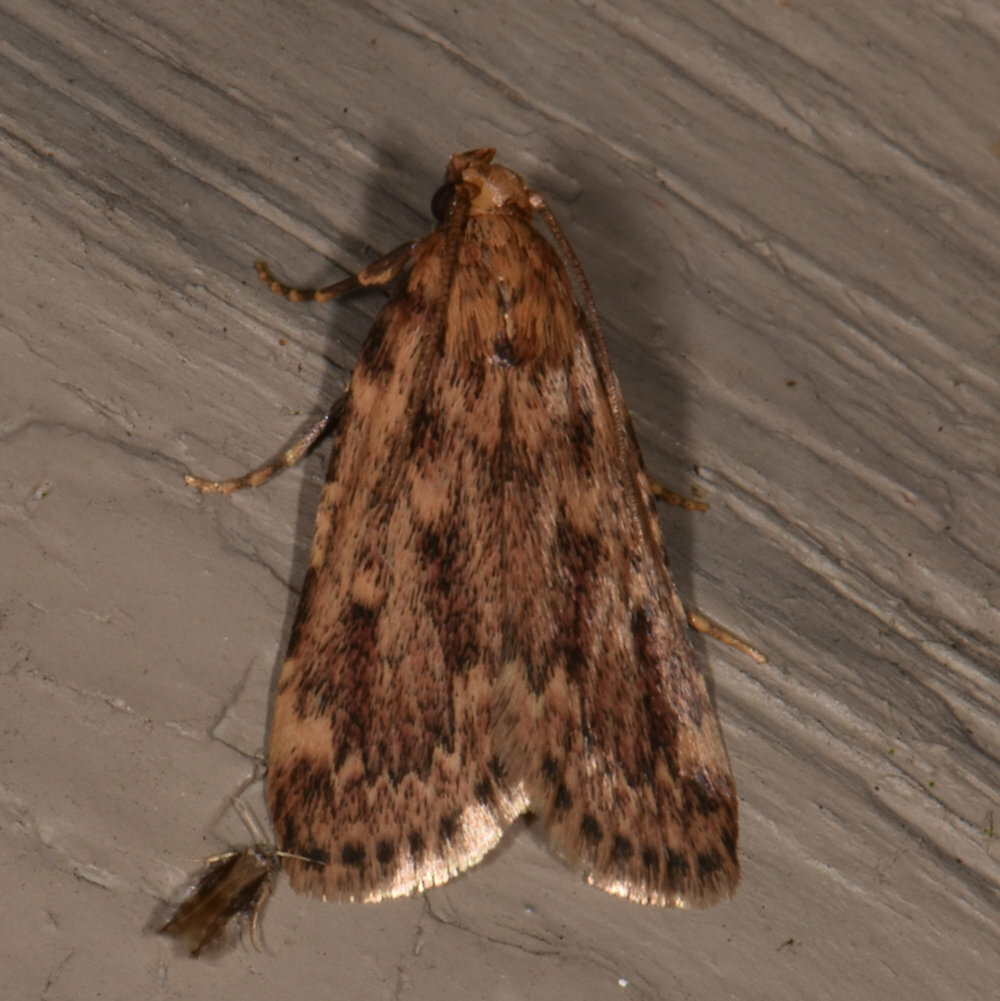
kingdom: Animalia
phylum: Arthropoda
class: Insecta
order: Lepidoptera
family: Pyralidae
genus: Aglossa
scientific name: Aglossa cuprina
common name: Grease moth
